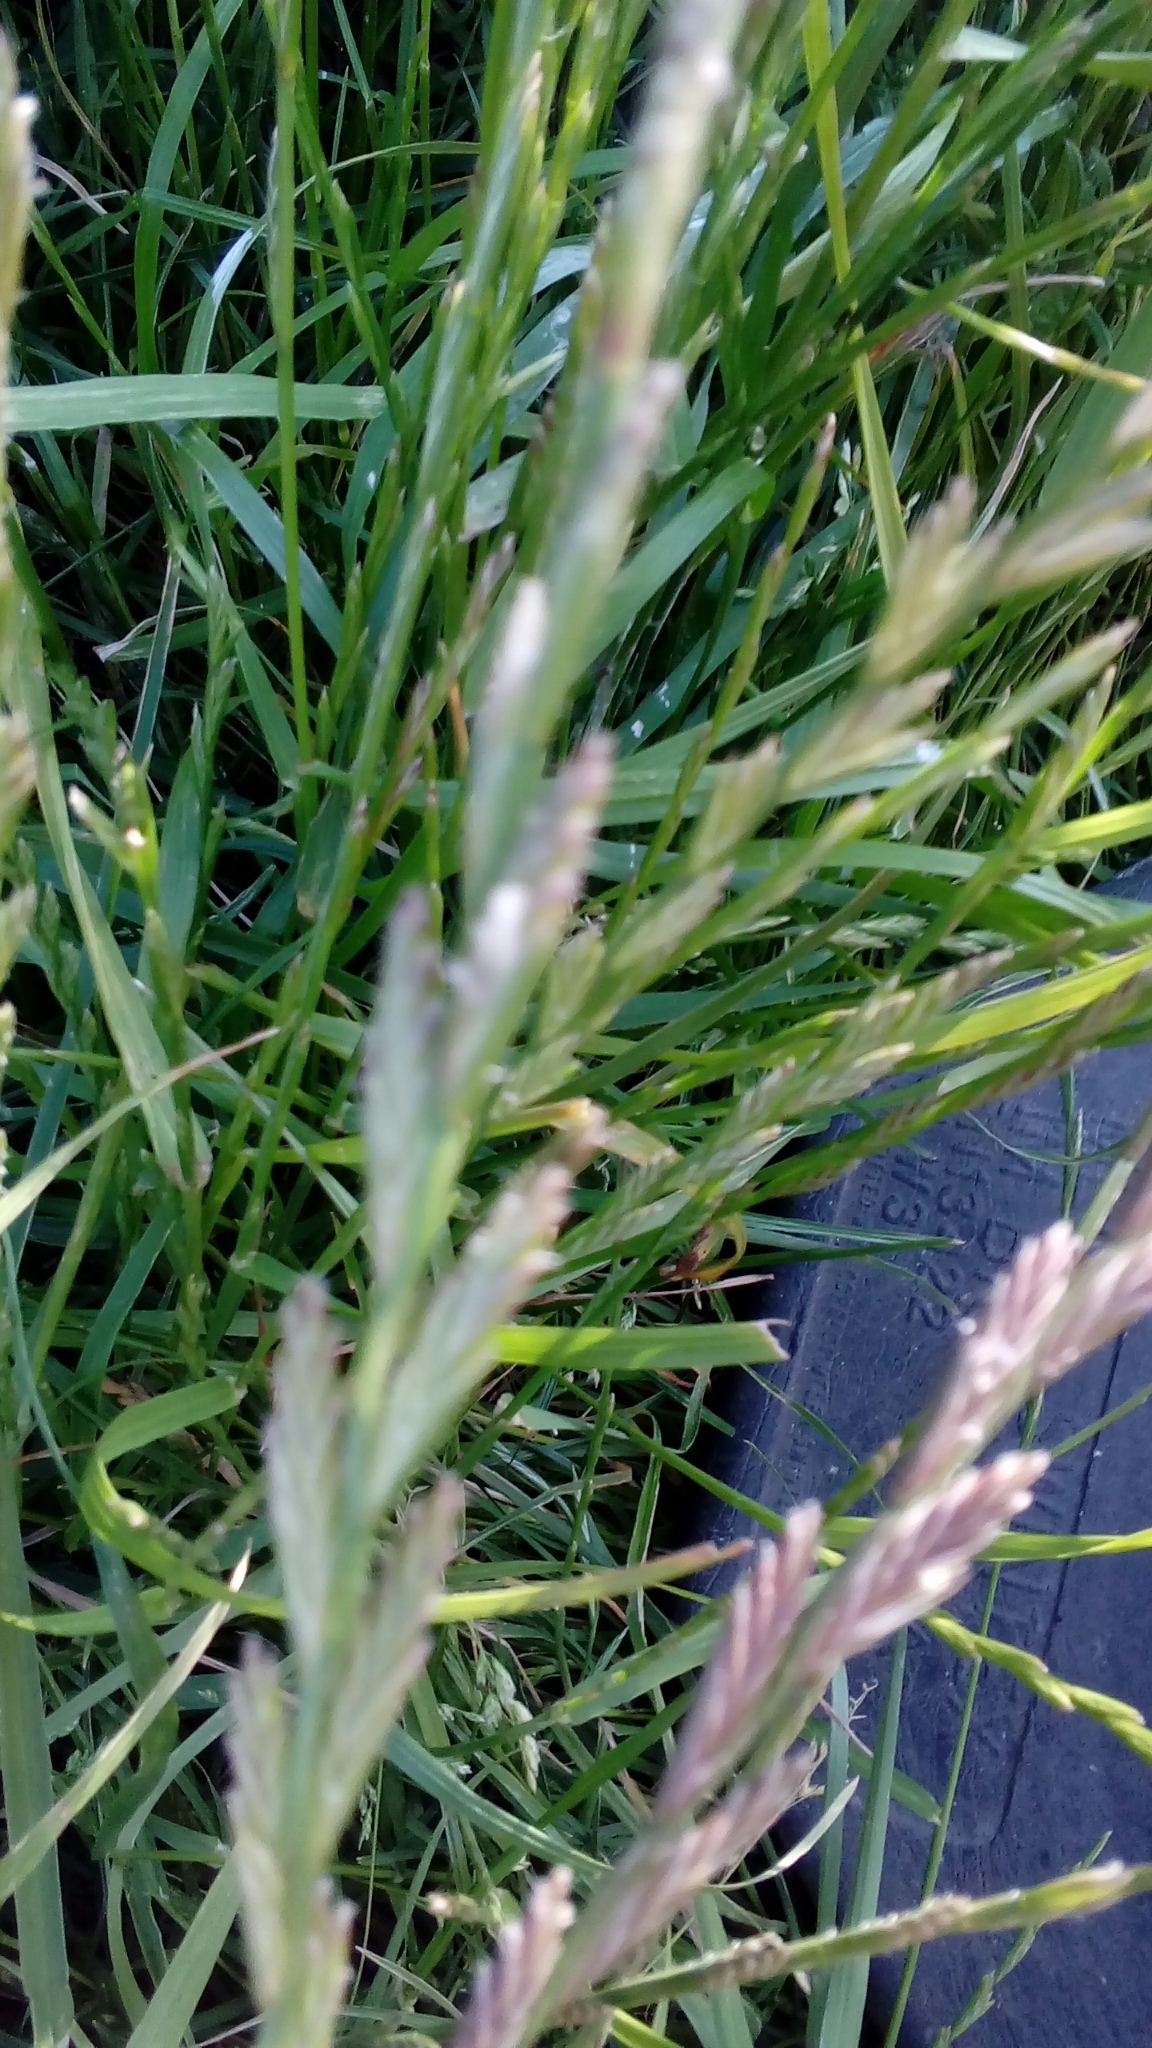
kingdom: Plantae
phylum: Tracheophyta
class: Liliopsida
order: Poales
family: Poaceae
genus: Lolium
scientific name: Lolium perenne
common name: Perennial ryegrass
